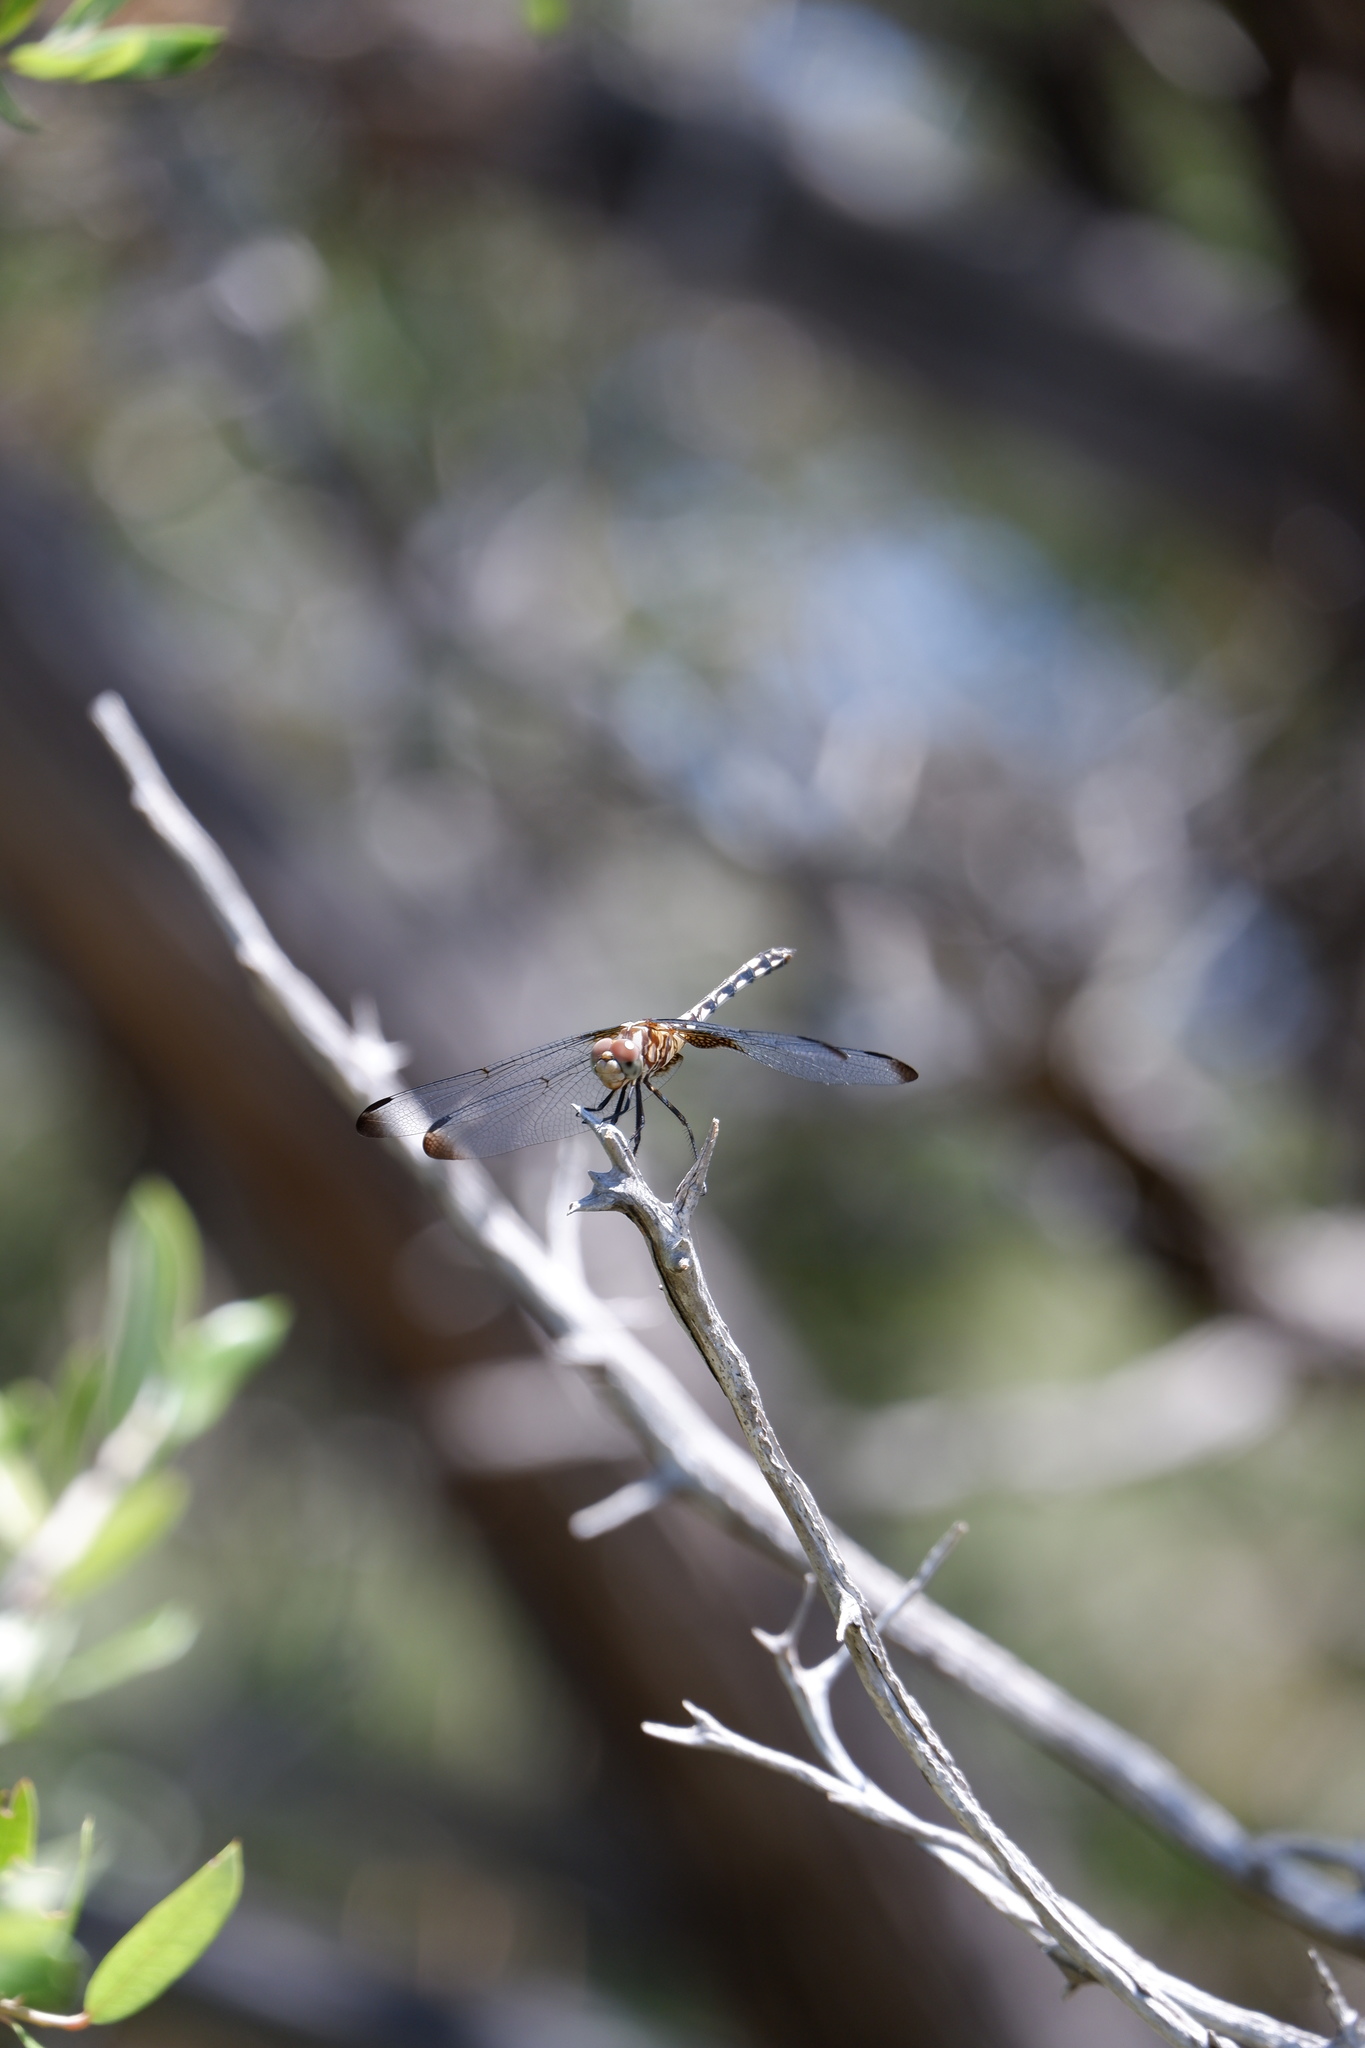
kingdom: Animalia
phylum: Arthropoda
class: Insecta
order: Odonata
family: Libellulidae
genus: Dythemis
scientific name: Dythemis fugax
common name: Checkered setwing
